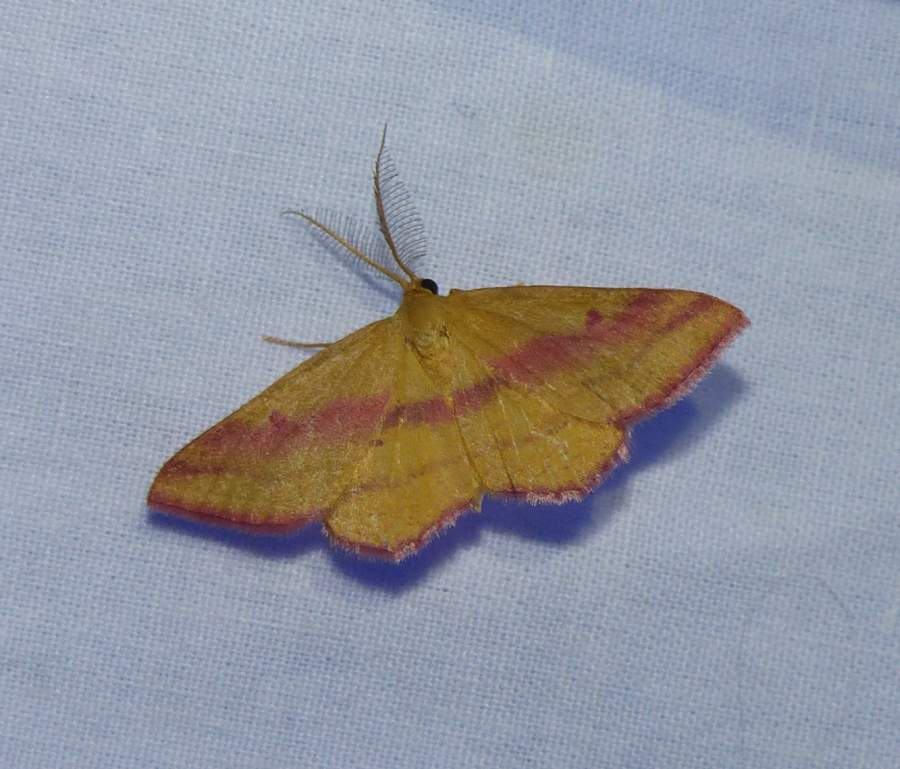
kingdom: Animalia
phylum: Arthropoda
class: Insecta
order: Lepidoptera
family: Geometridae
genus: Haematopis
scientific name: Haematopis grataria
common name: Chickweed geometer
